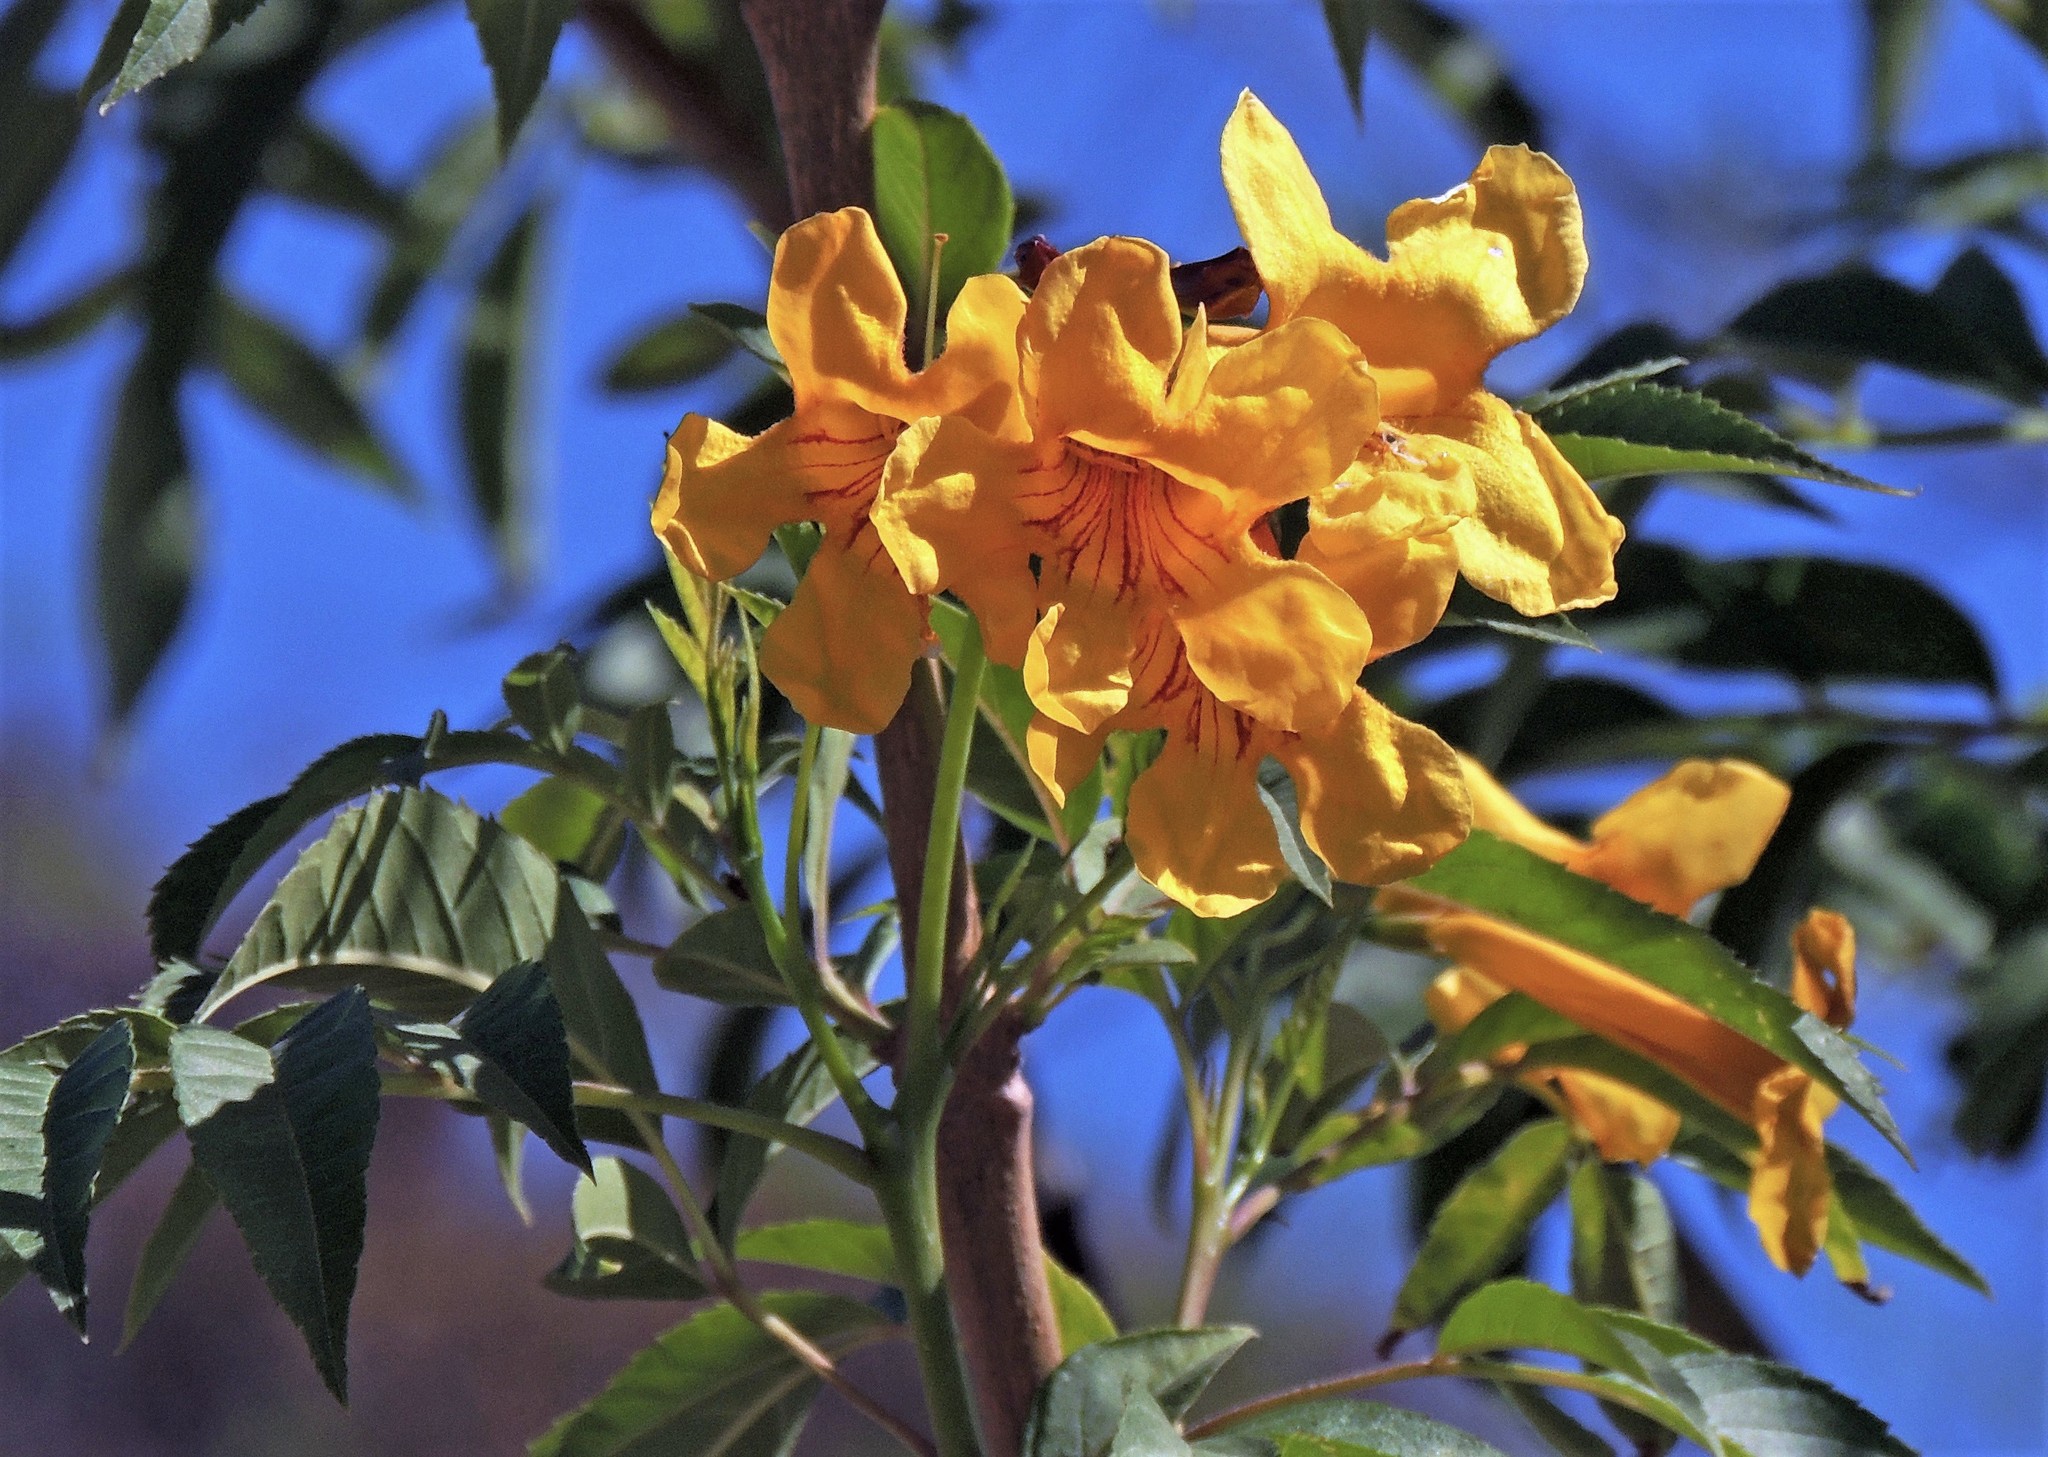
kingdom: Plantae
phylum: Tracheophyta
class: Magnoliopsida
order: Lamiales
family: Bignoniaceae
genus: Tecoma
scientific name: Tecoma stans
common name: Yellow trumpetbush
